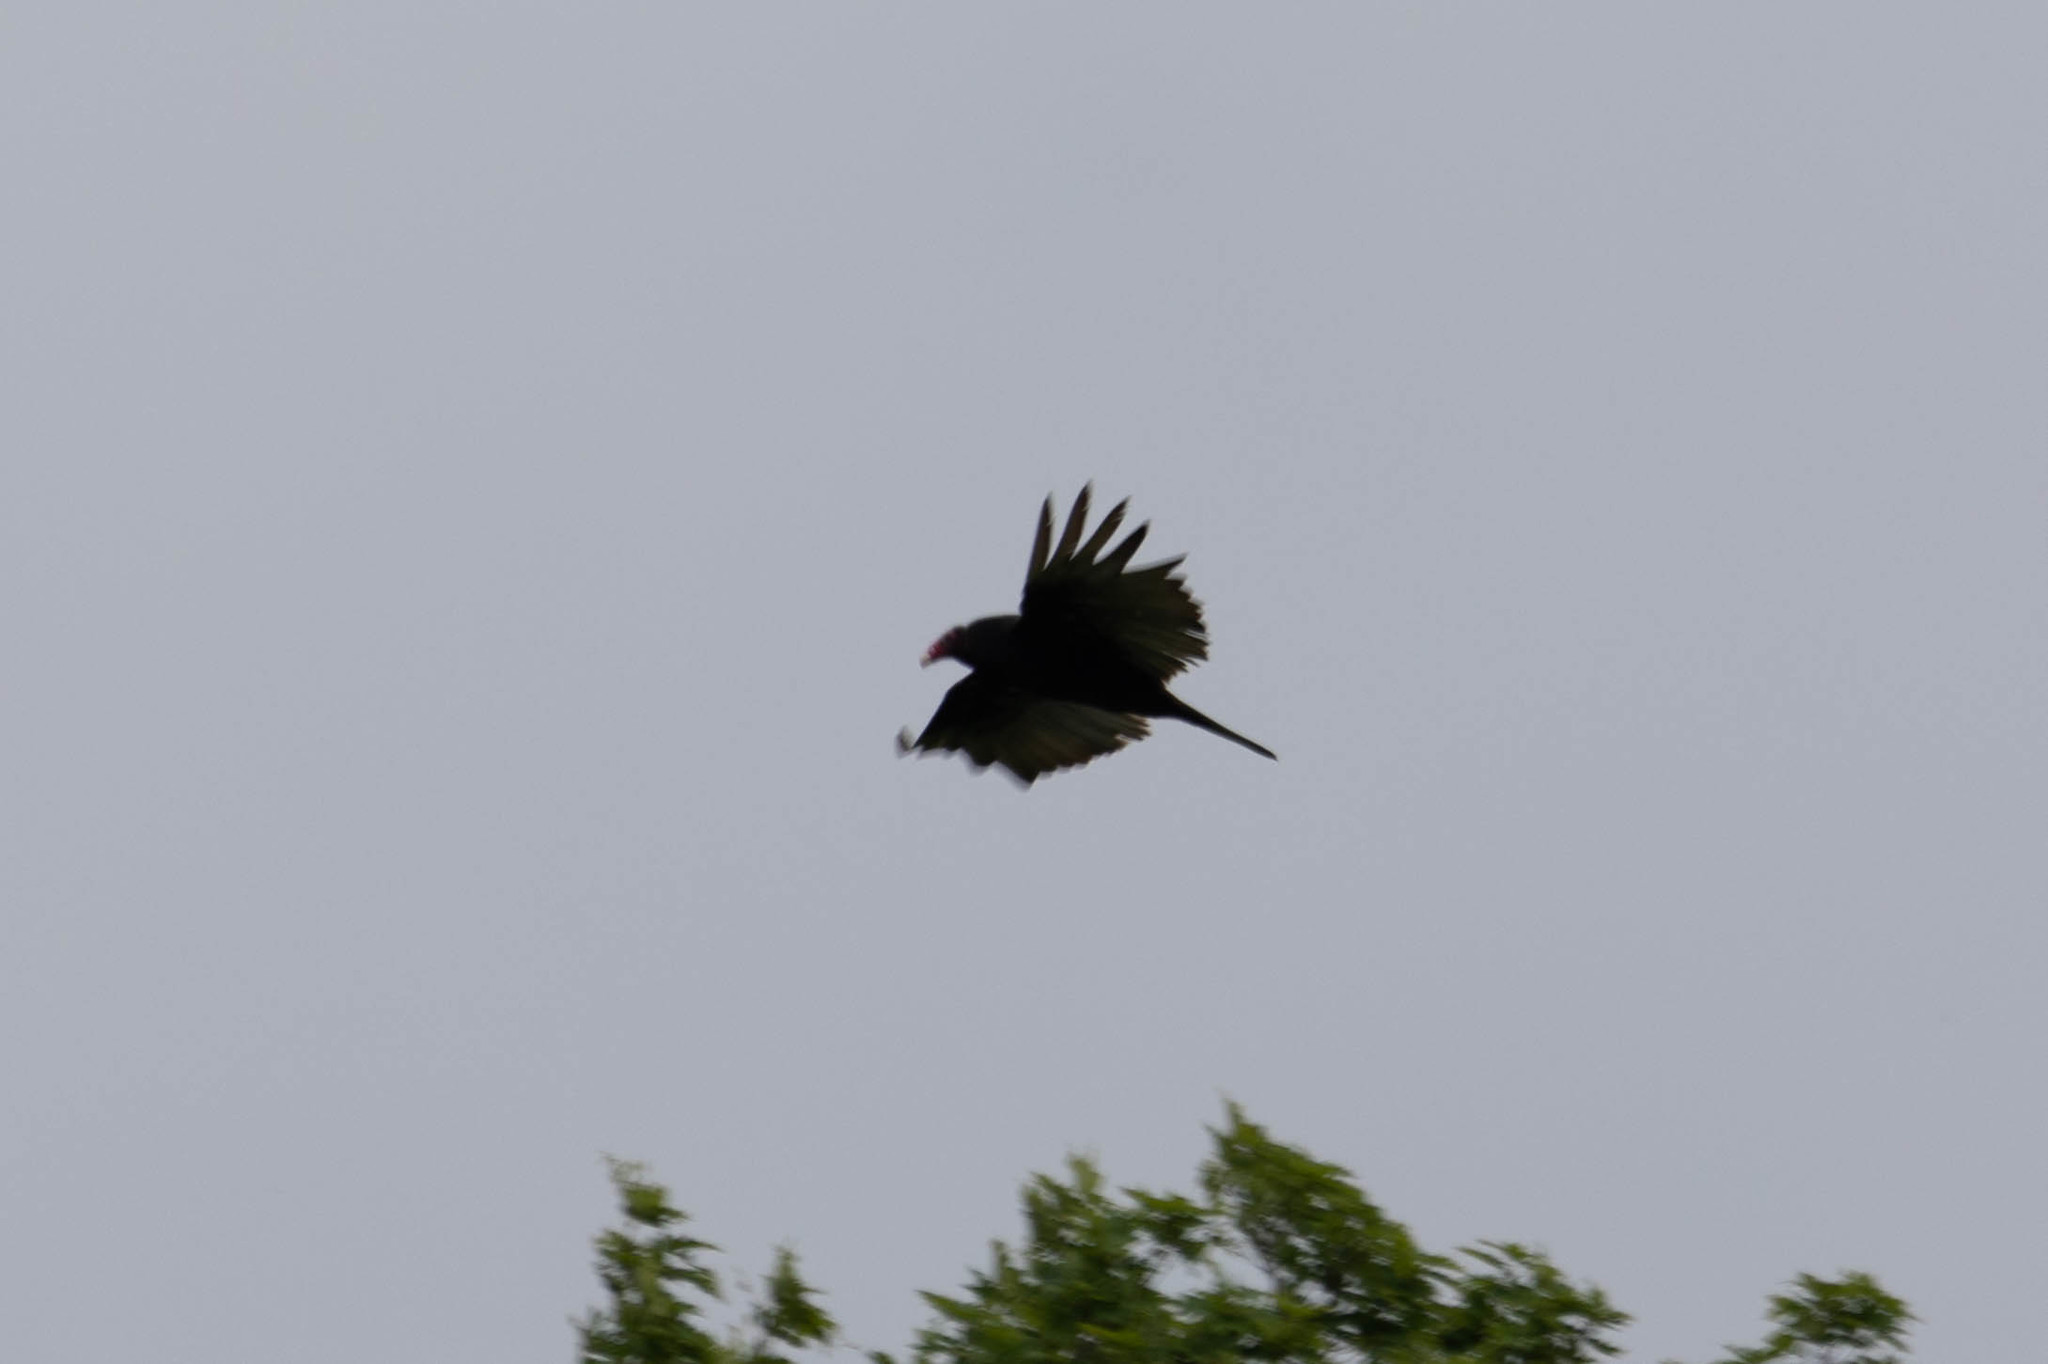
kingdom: Animalia
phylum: Chordata
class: Aves
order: Accipitriformes
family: Cathartidae
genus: Cathartes
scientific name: Cathartes aura
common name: Turkey vulture
